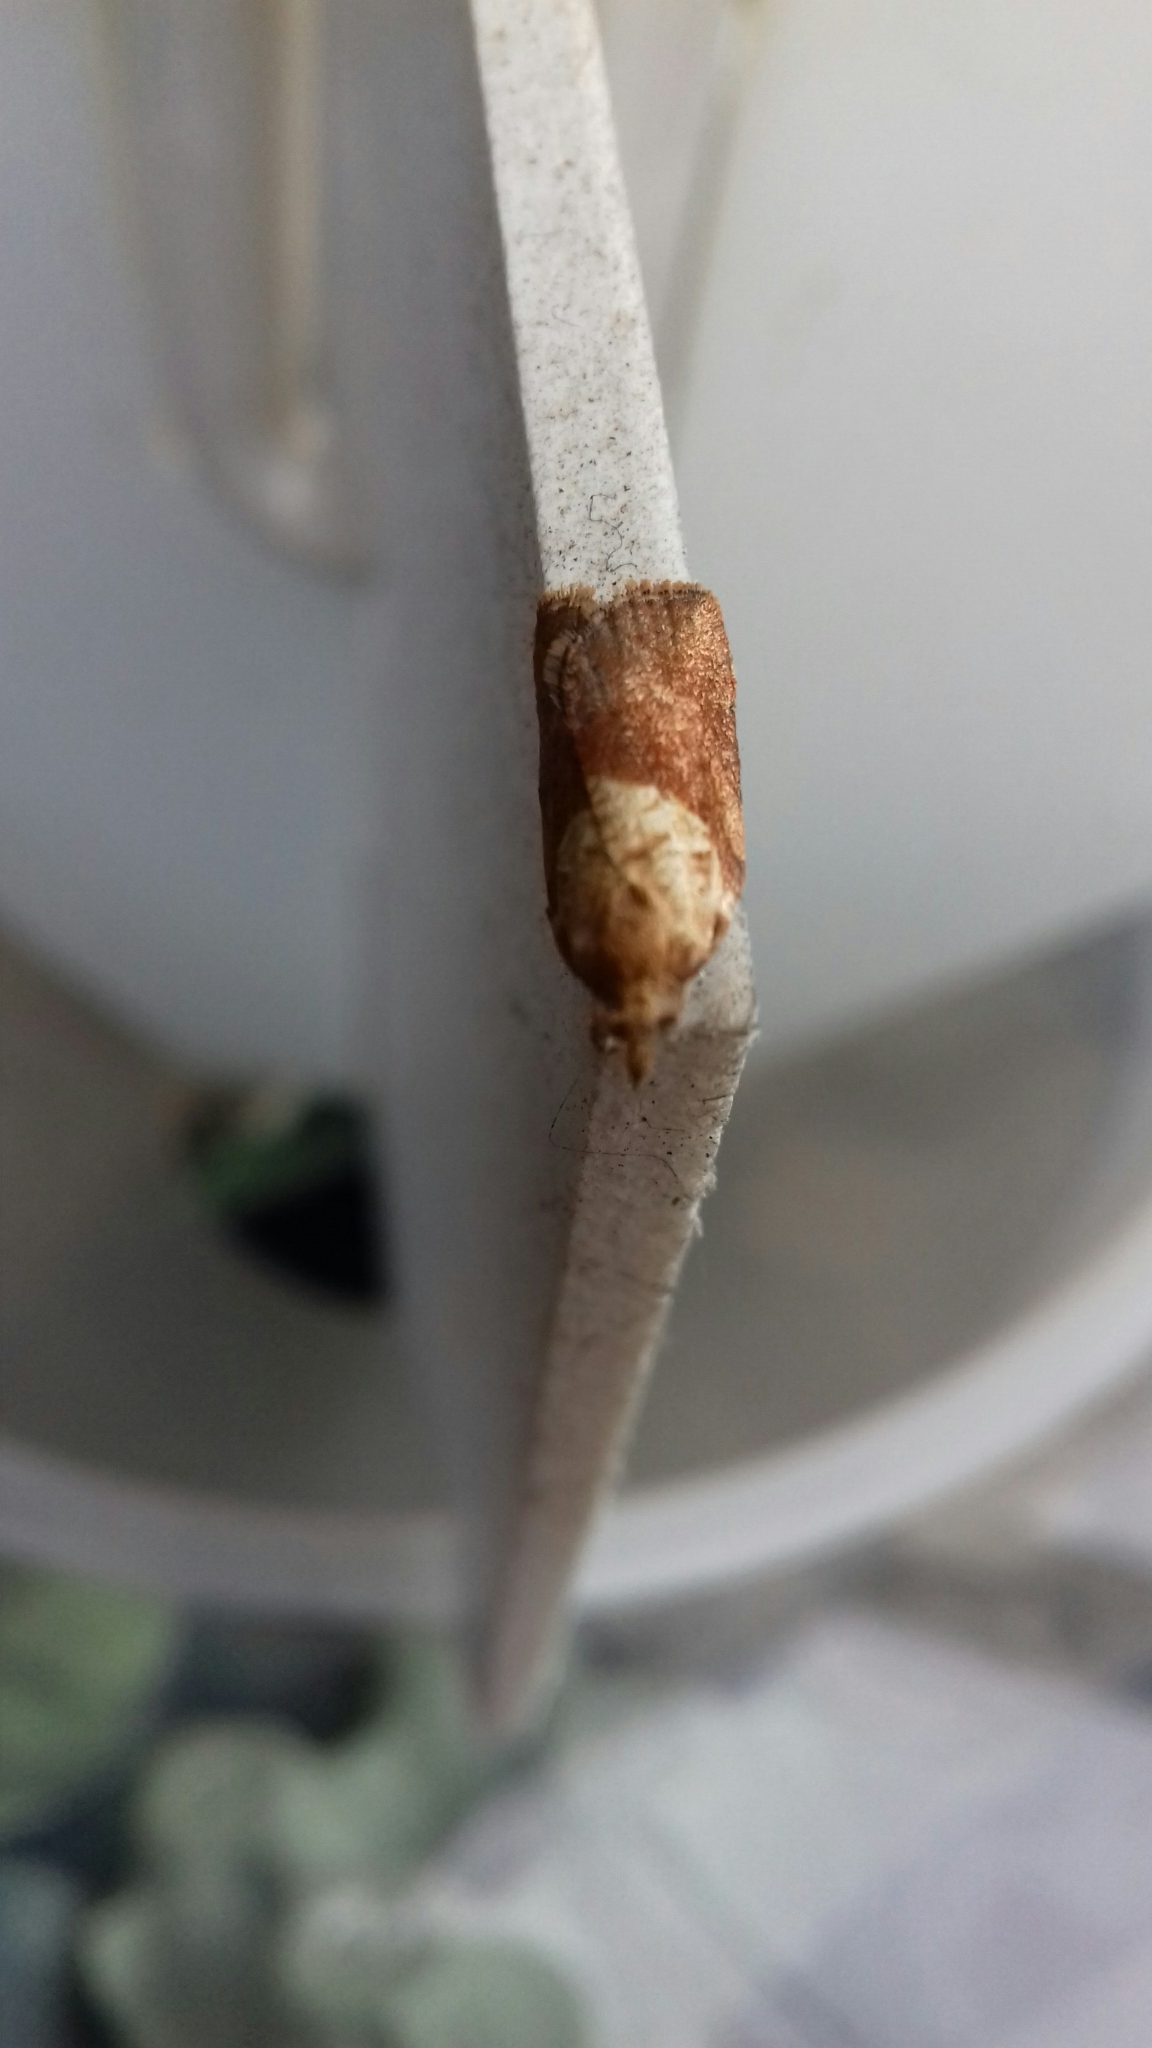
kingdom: Animalia
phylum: Arthropoda
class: Insecta
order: Lepidoptera
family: Tortricidae
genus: Epiphyas
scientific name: Epiphyas postvittana
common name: Light brown apple moth
